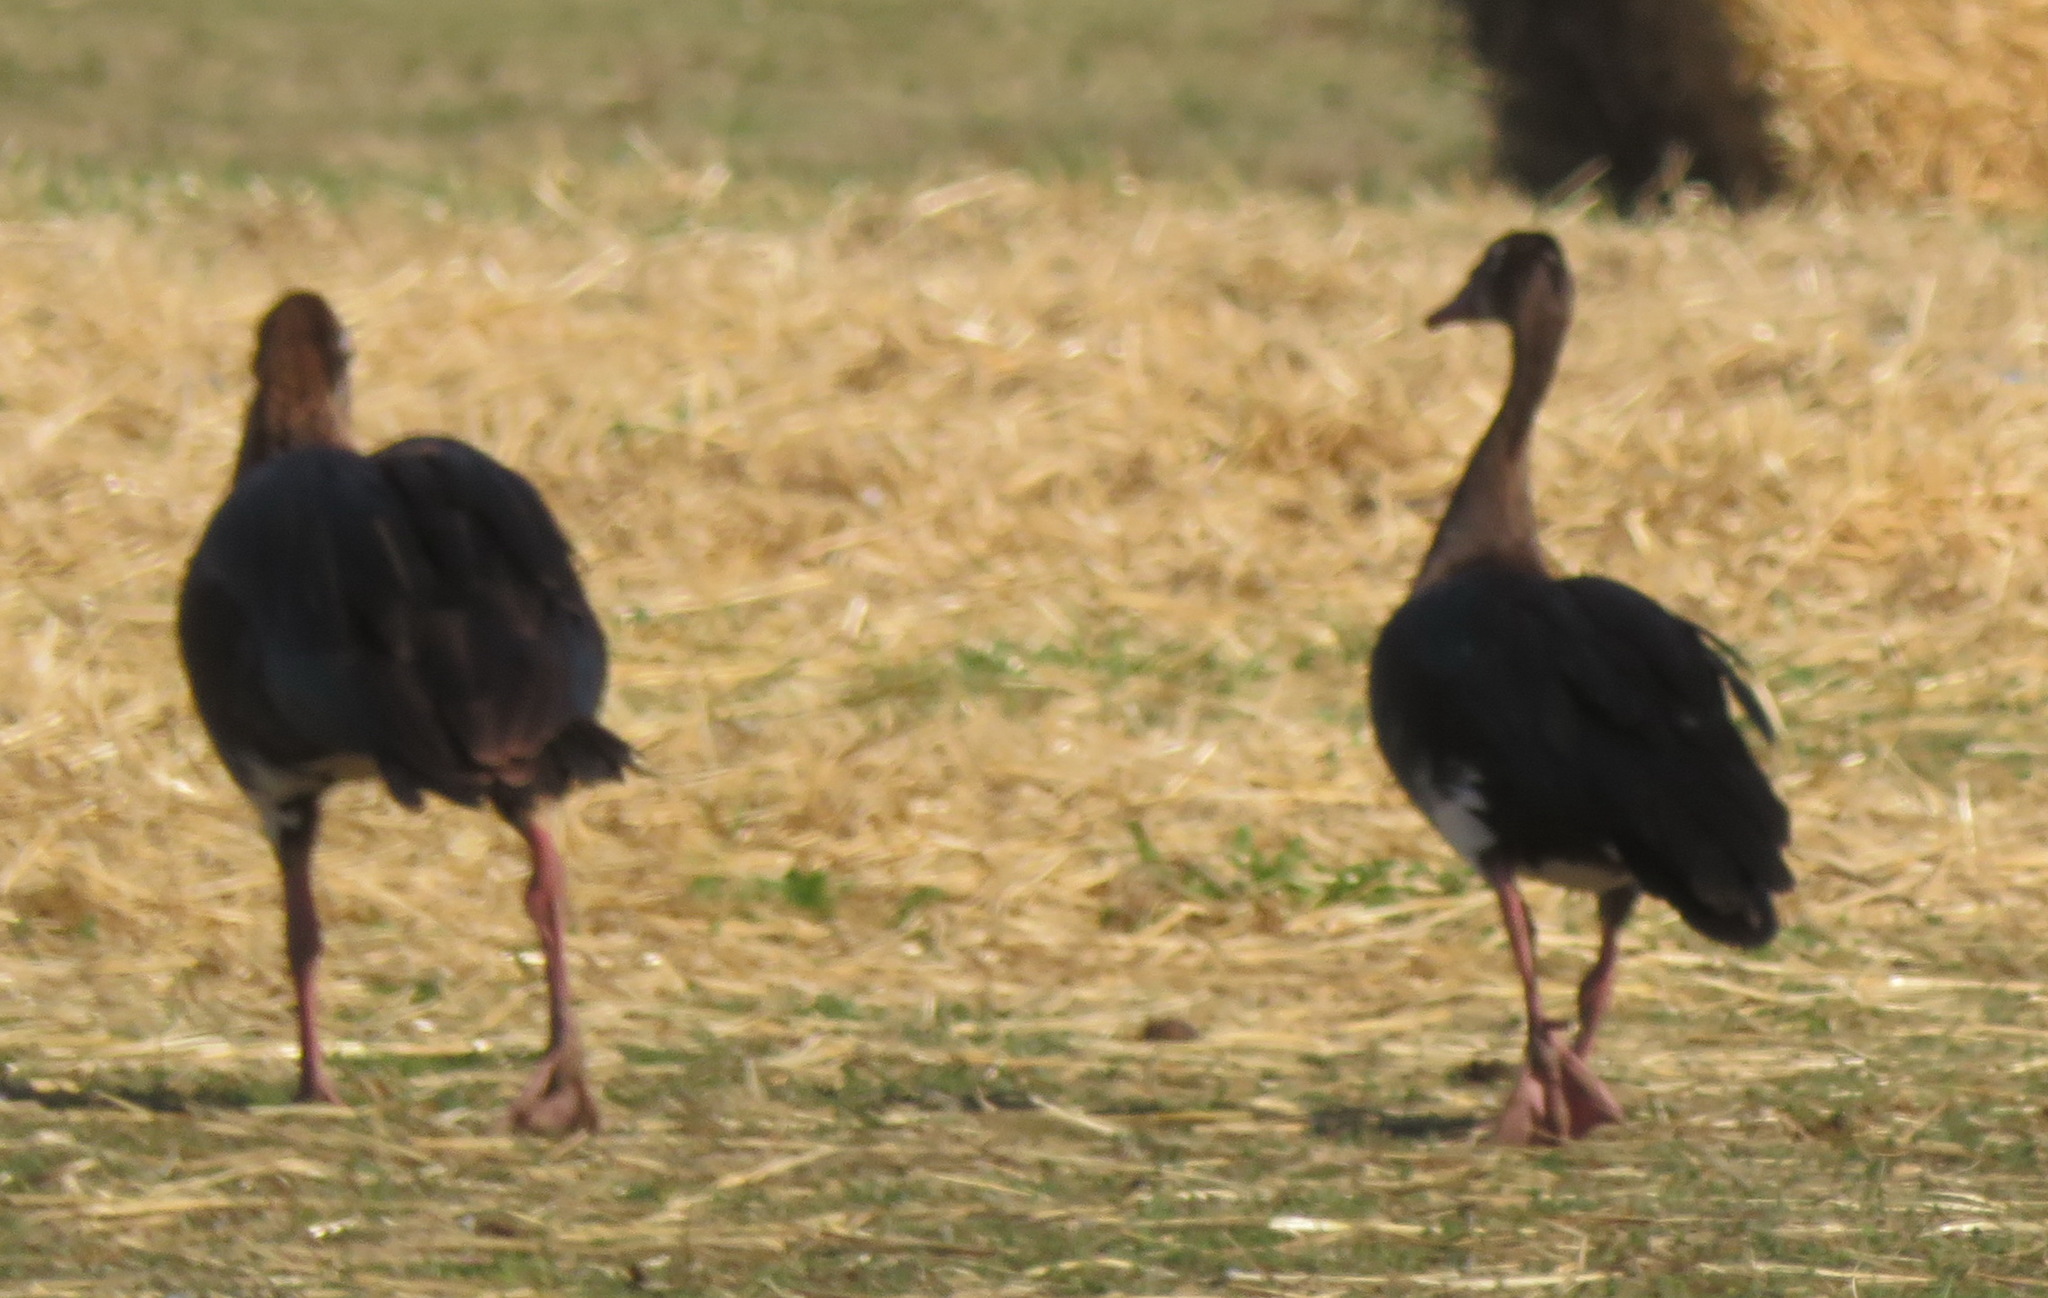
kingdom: Animalia
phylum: Chordata
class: Aves
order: Anseriformes
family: Anatidae
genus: Plectropterus
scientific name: Plectropterus gambensis
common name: Spur-winged goose
